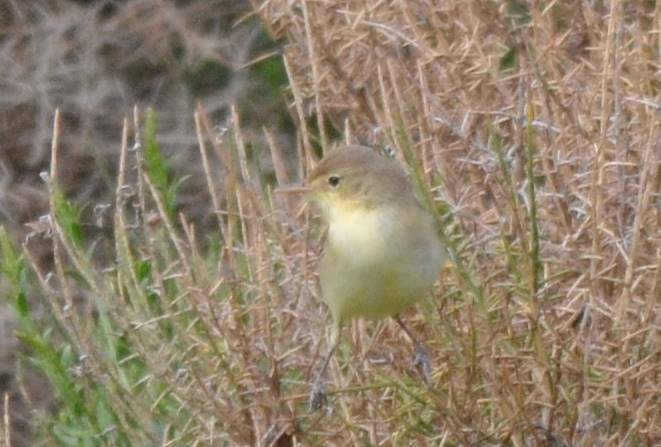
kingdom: Animalia
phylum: Chordata
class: Aves
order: Passeriformes
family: Acrocephalidae
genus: Hippolais
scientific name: Hippolais polyglotta
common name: Melodious warbler
